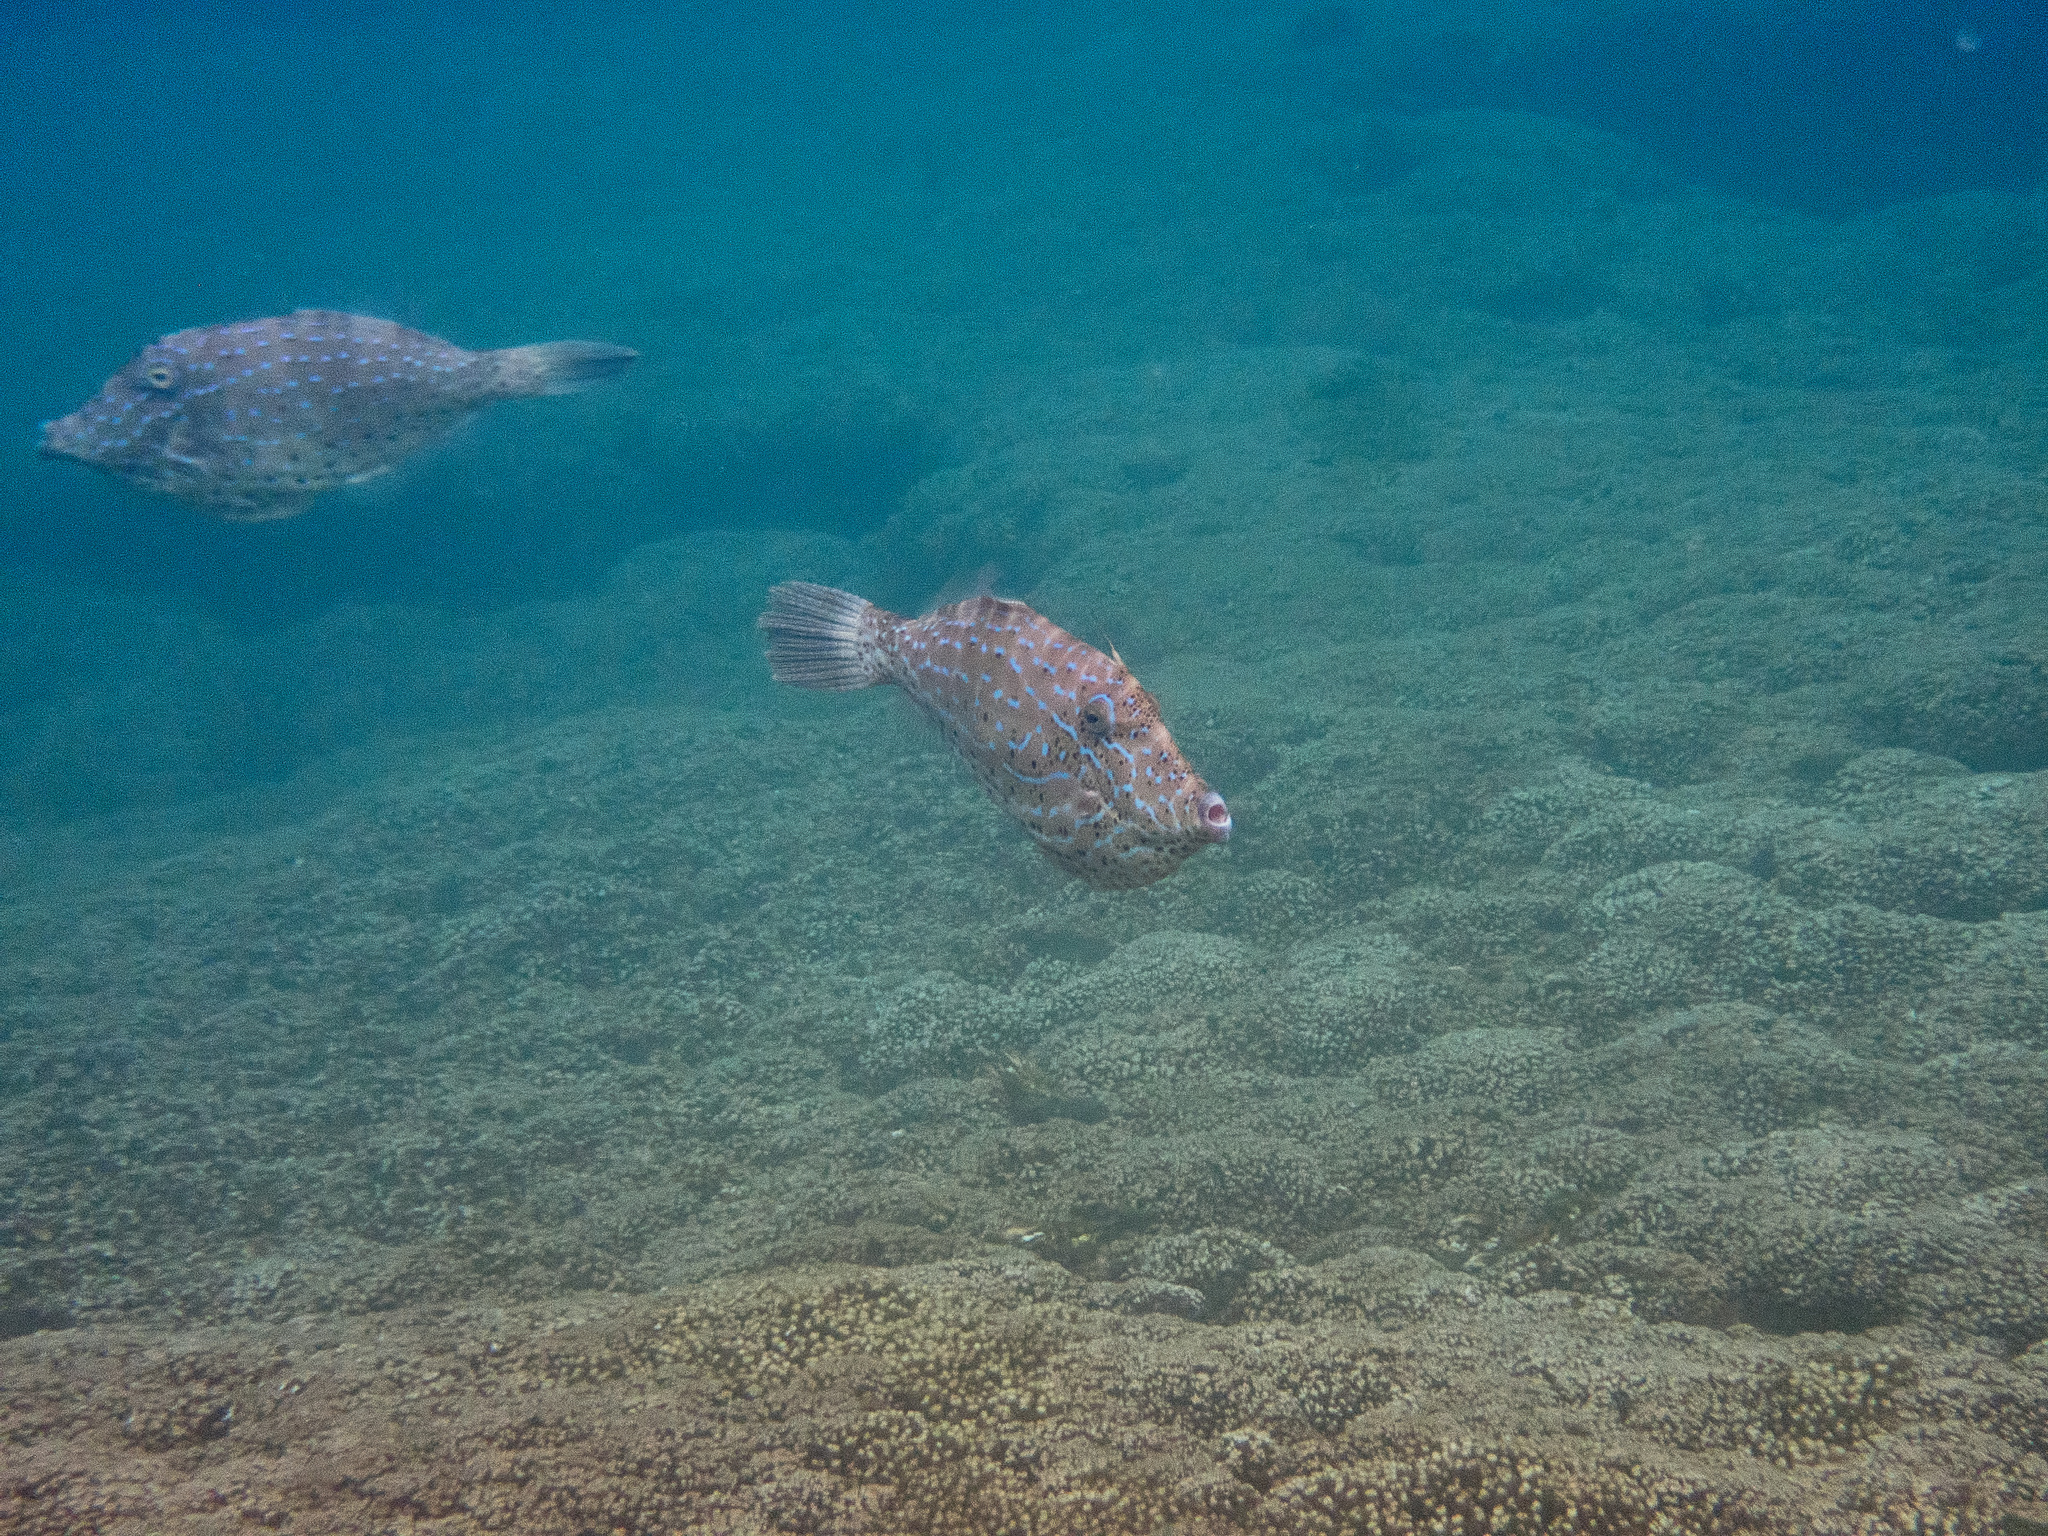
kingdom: Animalia
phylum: Chordata
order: Tetraodontiformes
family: Monacanthidae
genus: Aluterus
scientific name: Aluterus scriptus
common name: Scribbled leatherjacket filefish
